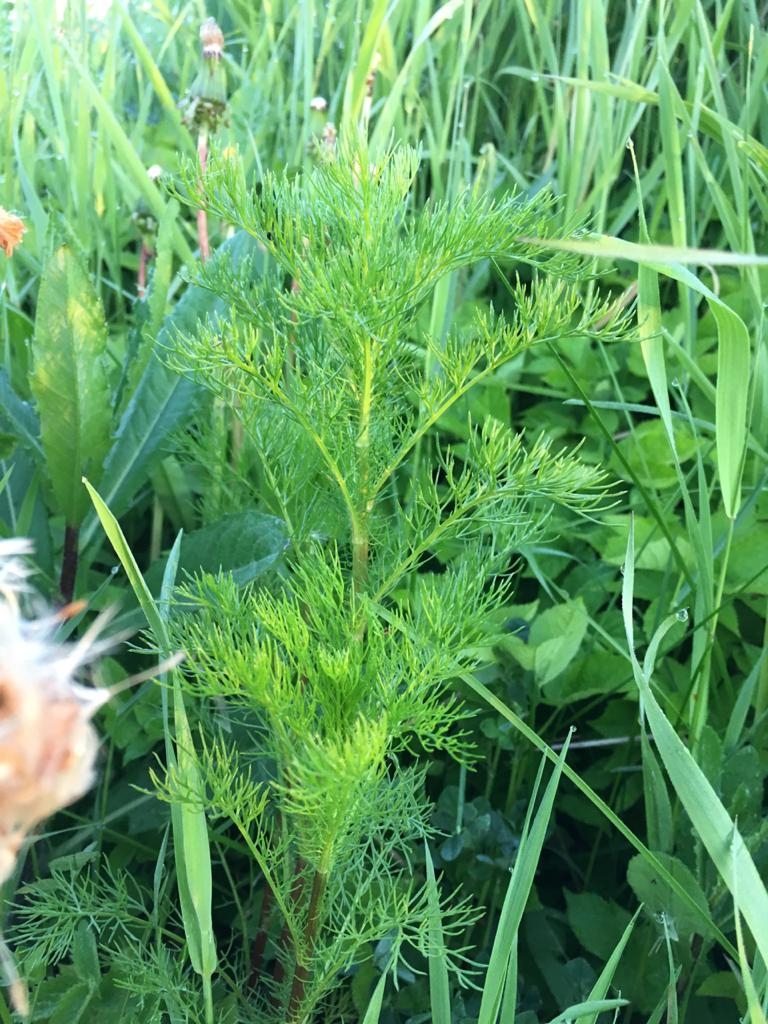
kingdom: Plantae
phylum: Tracheophyta
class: Magnoliopsida
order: Asterales
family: Asteraceae
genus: Tripleurospermum
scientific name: Tripleurospermum inodorum
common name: Scentless mayweed
